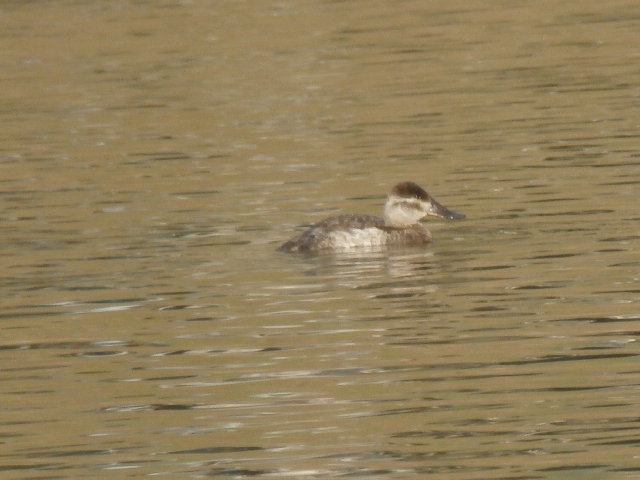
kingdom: Animalia
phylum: Chordata
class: Aves
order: Anseriformes
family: Anatidae
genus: Oxyura
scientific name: Oxyura jamaicensis
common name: Ruddy duck
